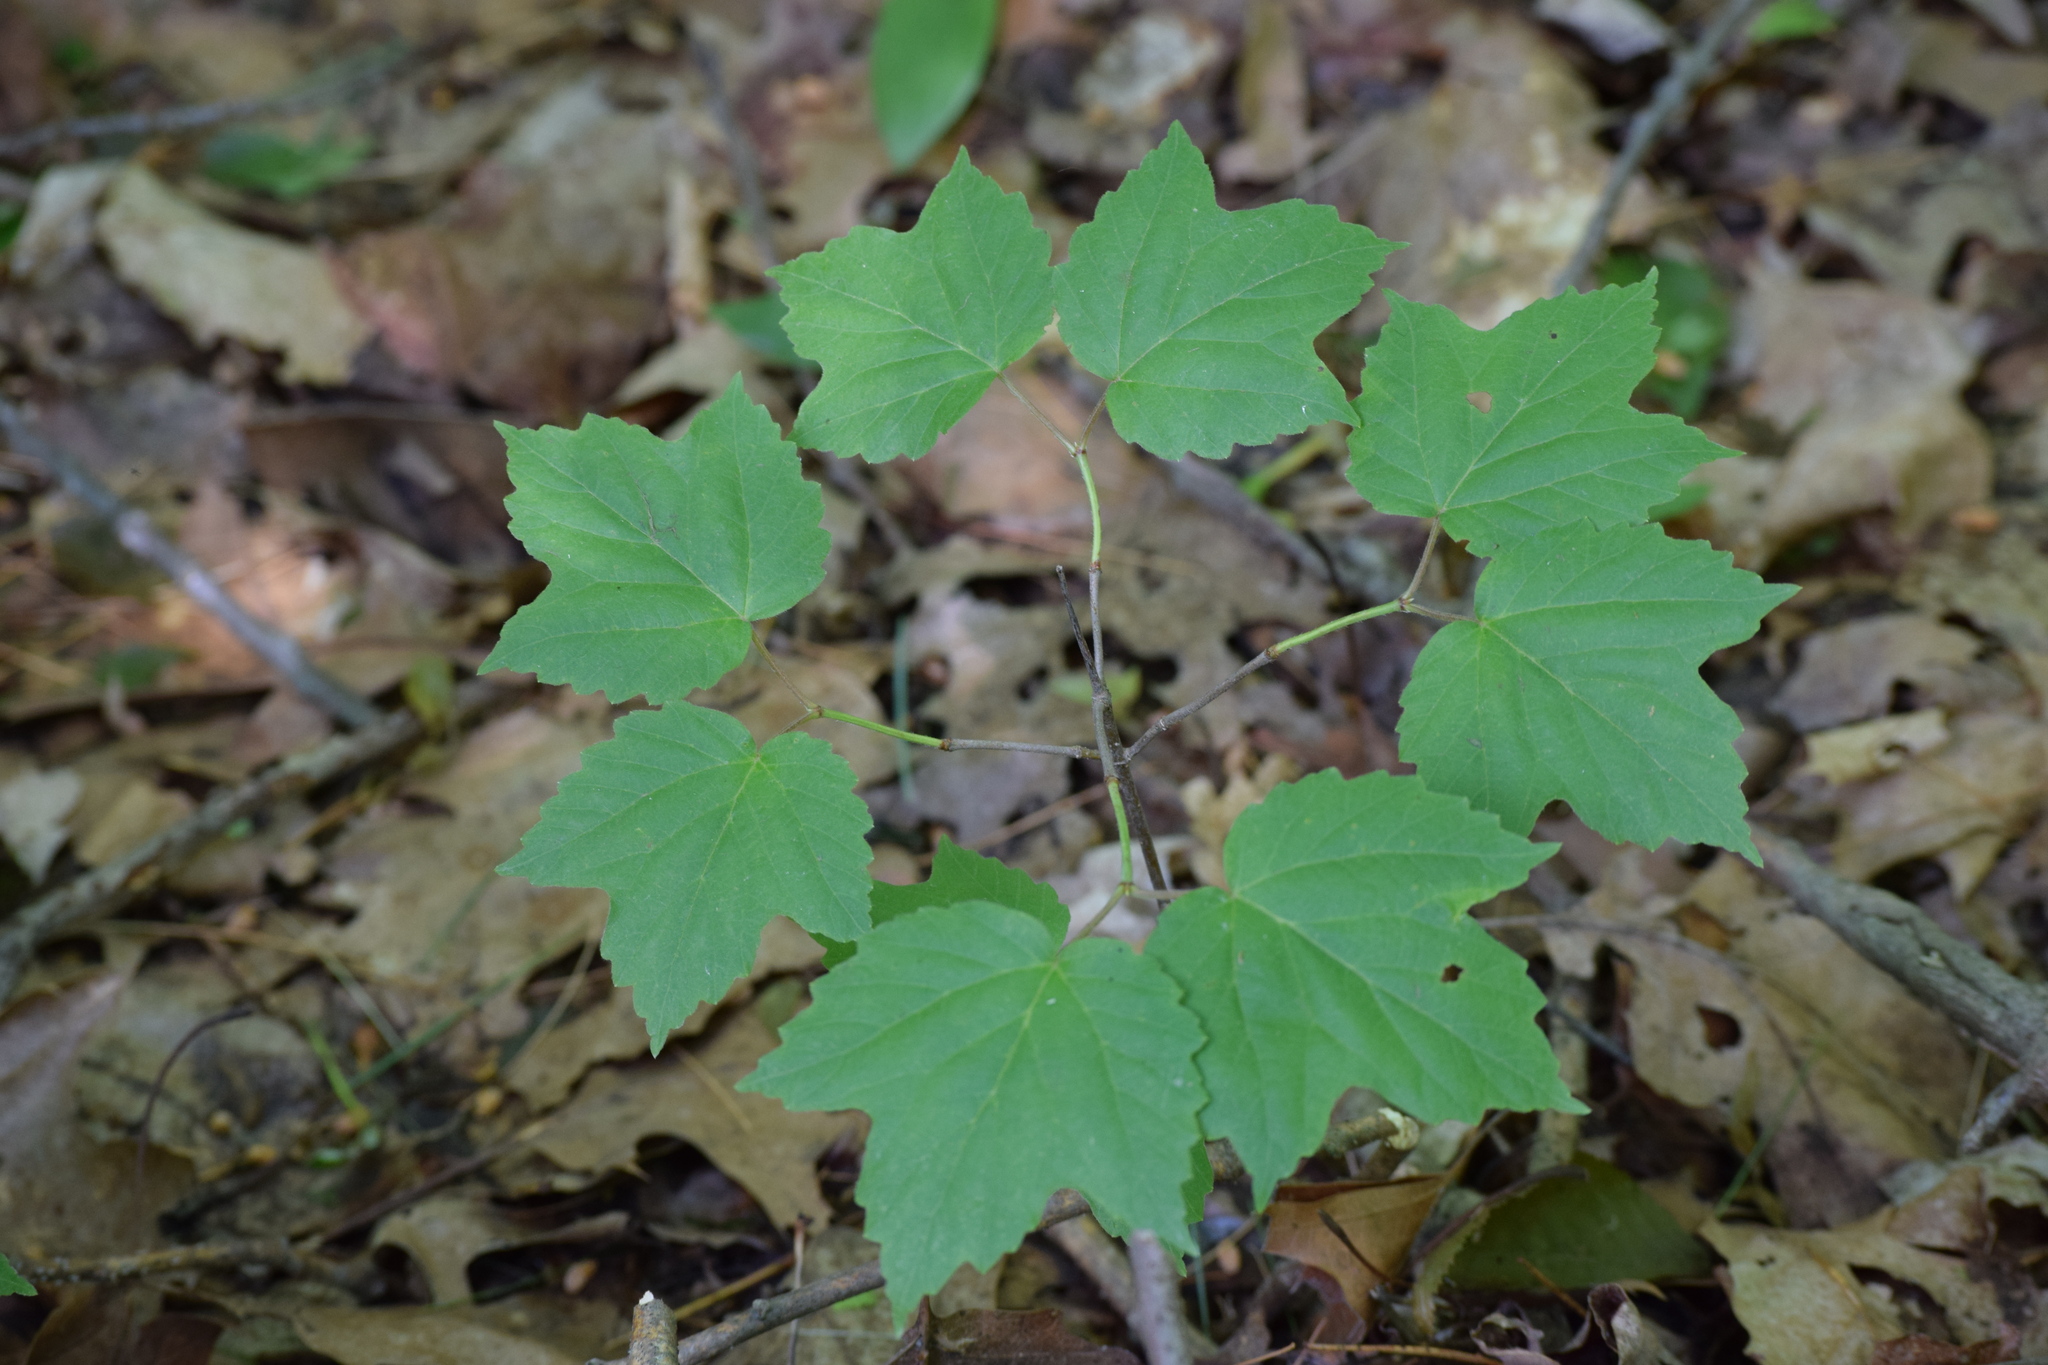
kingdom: Plantae
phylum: Tracheophyta
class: Magnoliopsida
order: Dipsacales
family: Viburnaceae
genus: Viburnum
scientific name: Viburnum acerifolium
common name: Dockmackie
